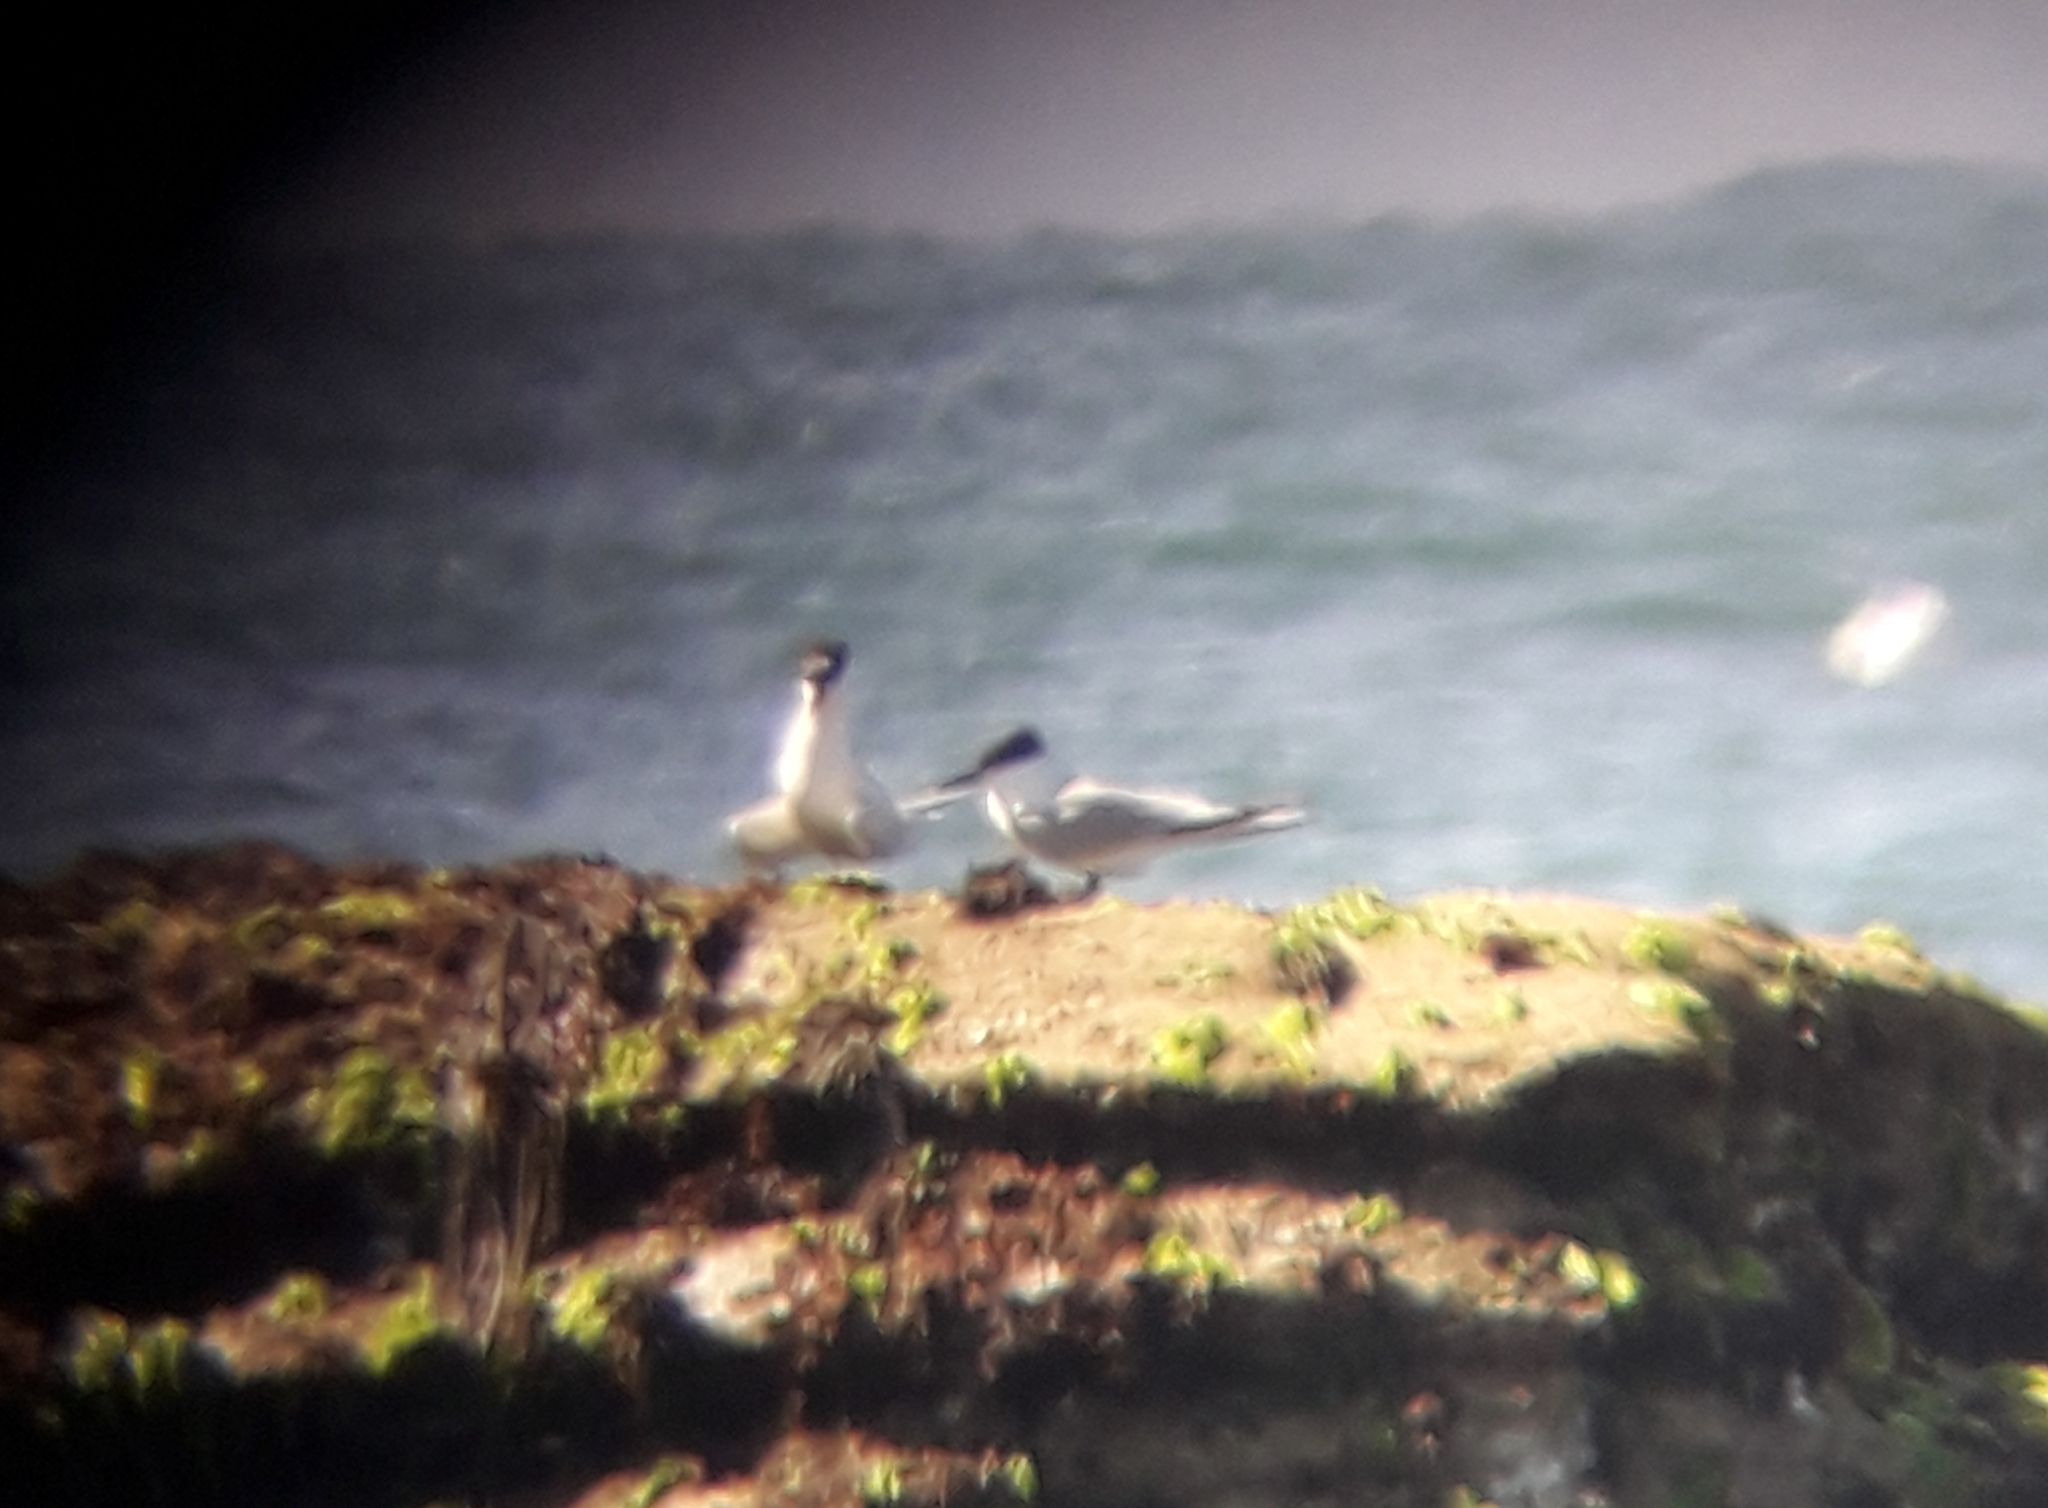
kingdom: Animalia
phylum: Chordata
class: Aves
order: Charadriiformes
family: Laridae
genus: Thalasseus
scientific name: Thalasseus sandvicensis
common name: Sandwich tern
